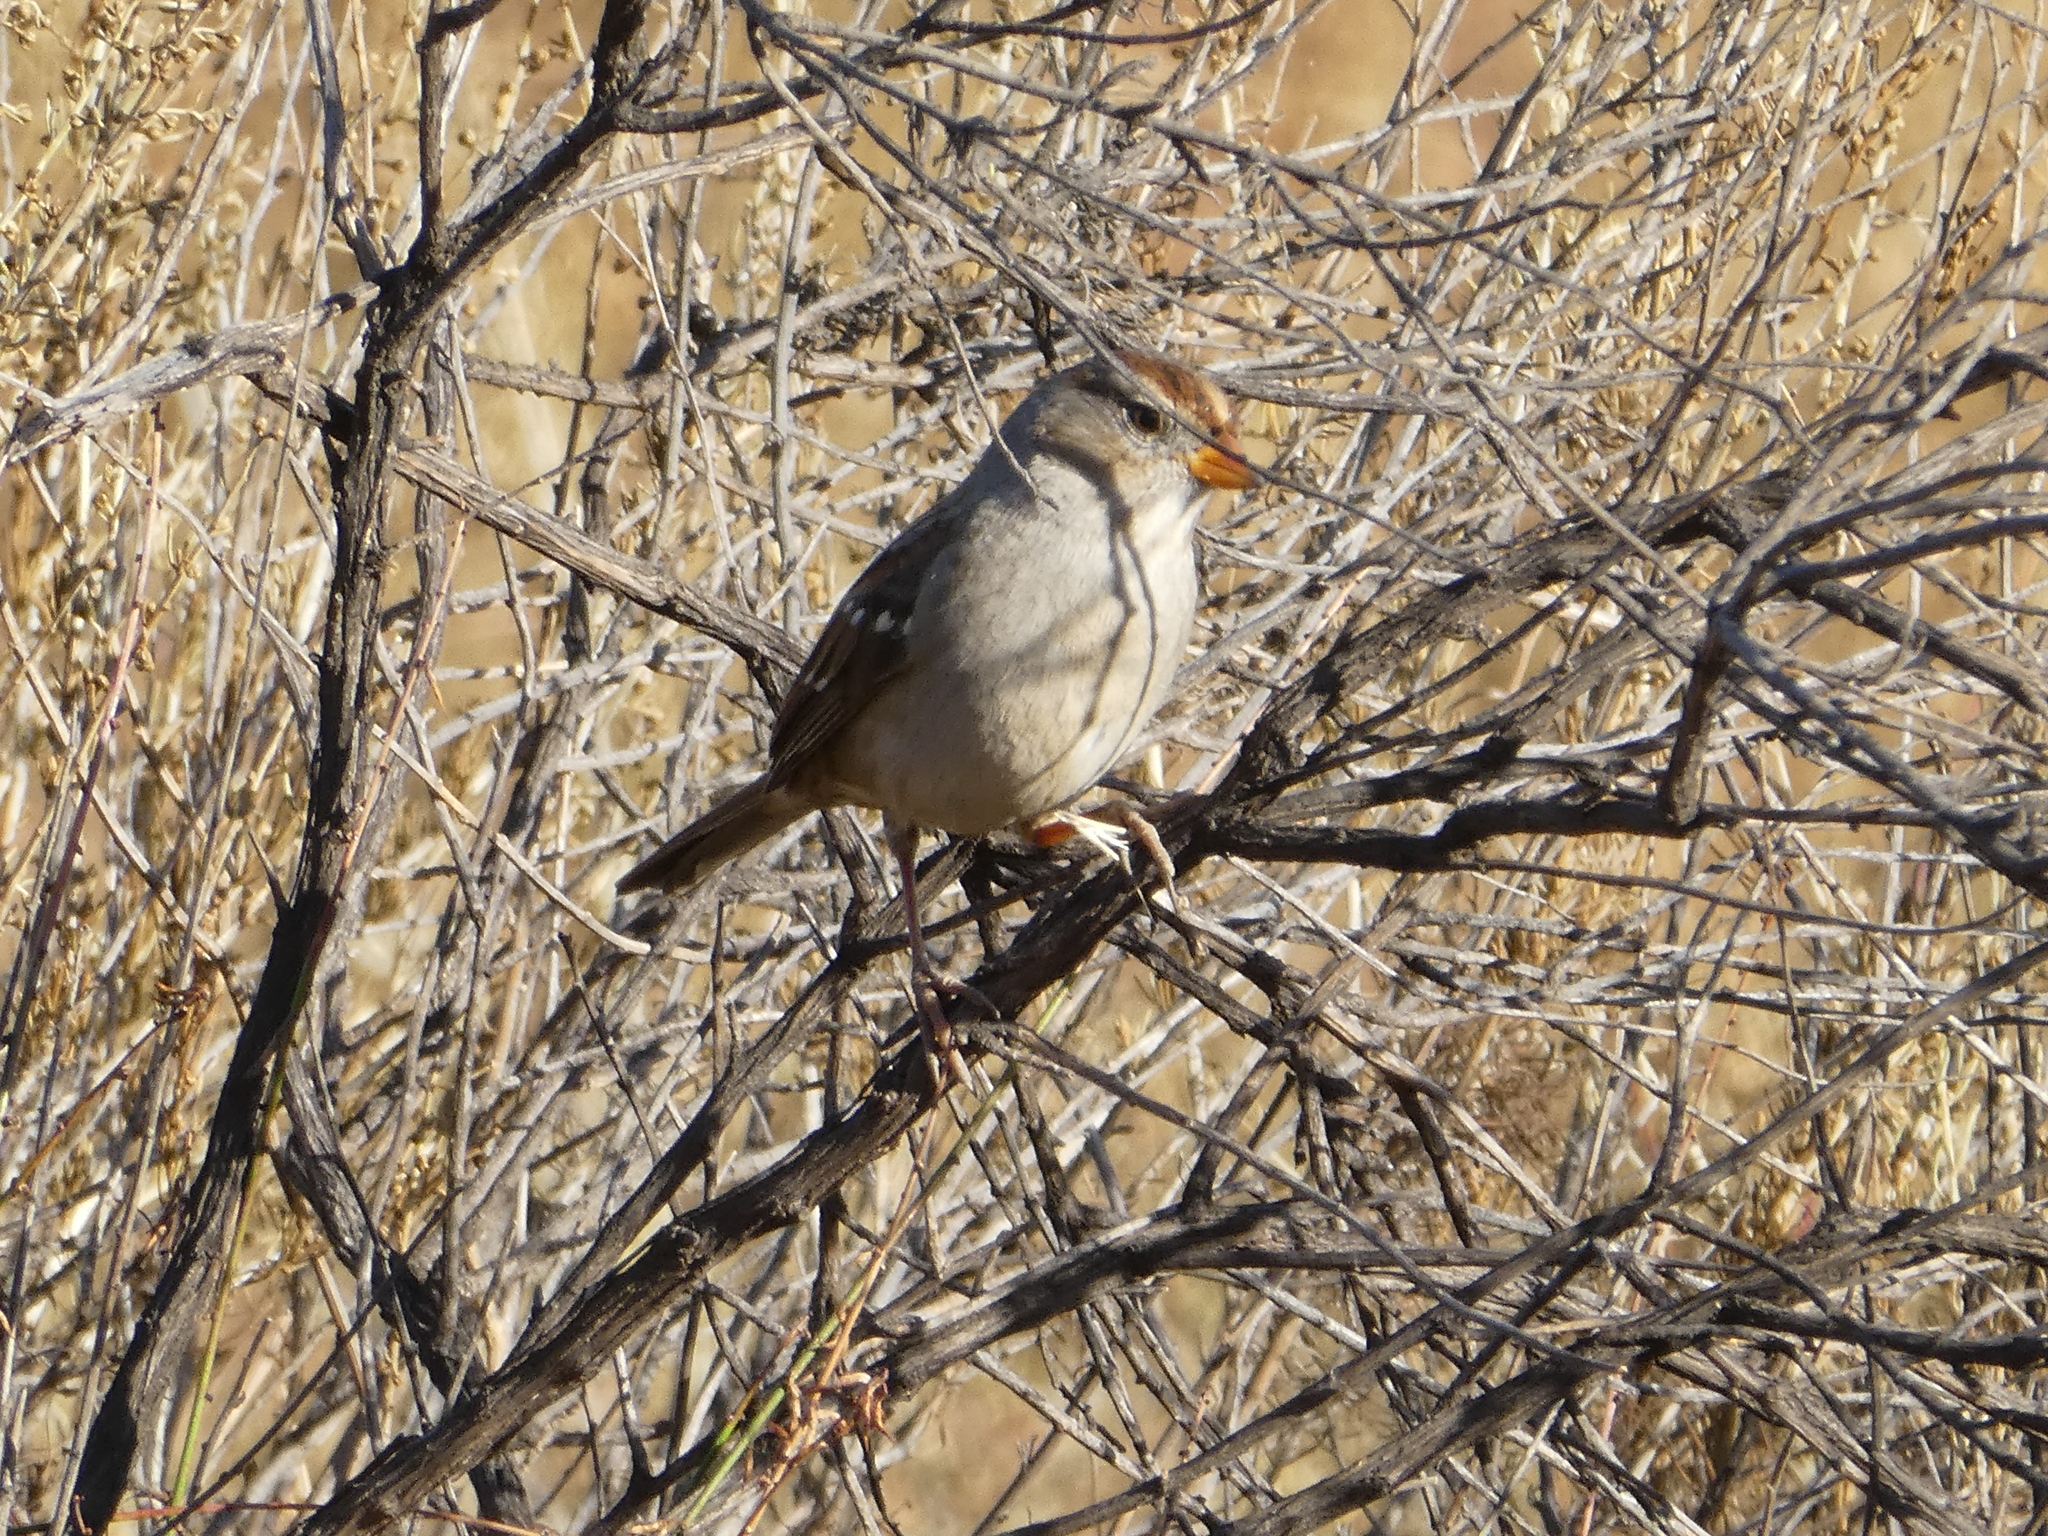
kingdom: Animalia
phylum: Chordata
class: Aves
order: Passeriformes
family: Passerellidae
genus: Zonotrichia
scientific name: Zonotrichia leucophrys
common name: White-crowned sparrow
